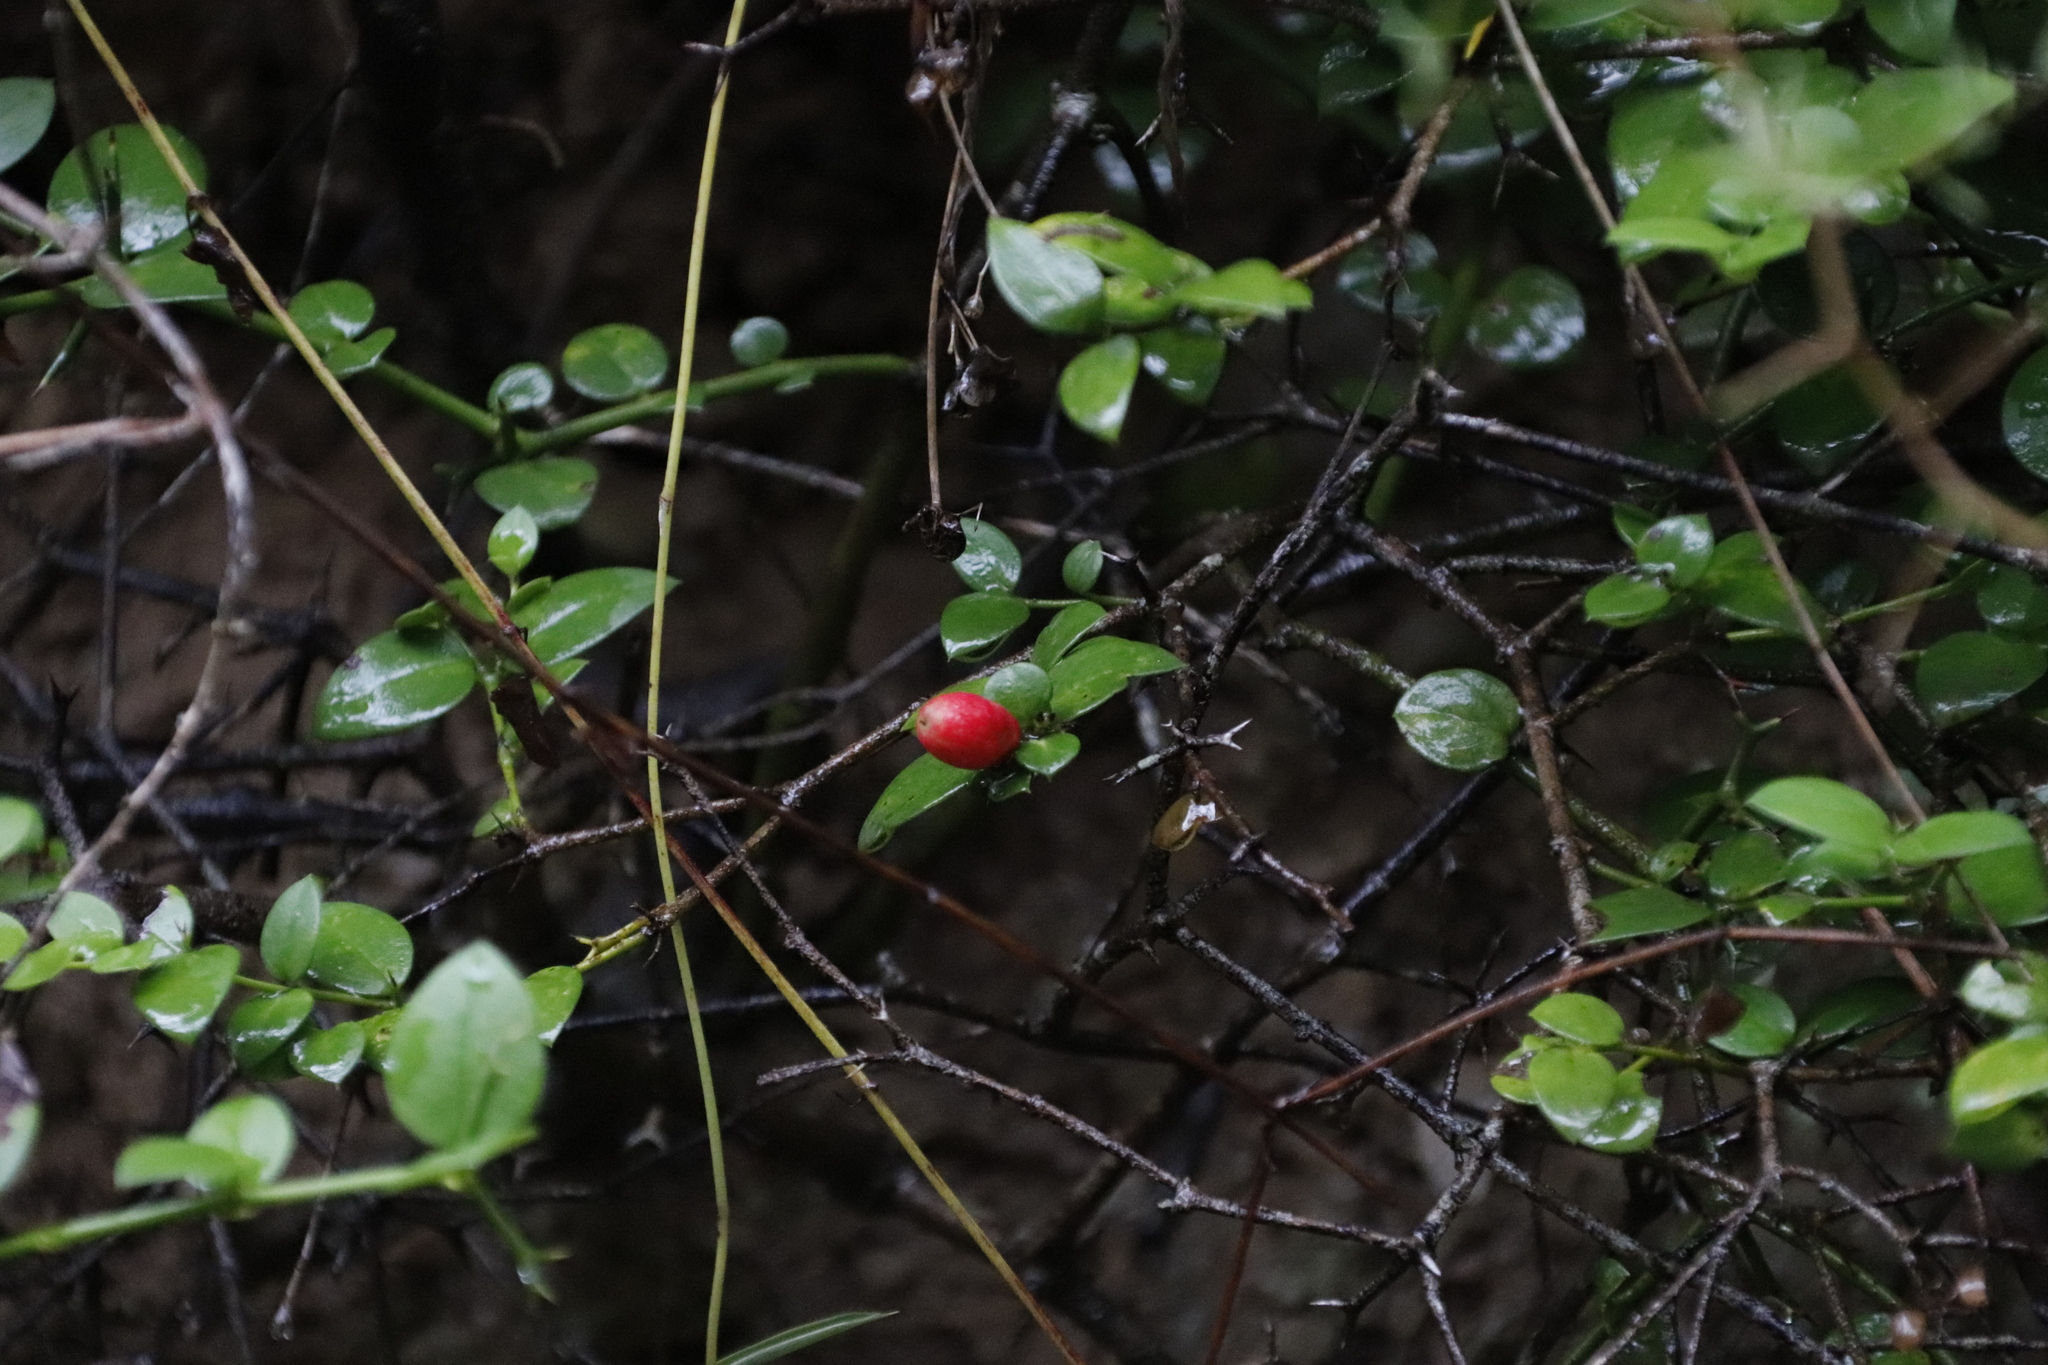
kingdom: Plantae
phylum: Tracheophyta
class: Magnoliopsida
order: Gentianales
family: Apocynaceae
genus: Carissa
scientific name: Carissa bispinosa
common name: Forest num-num
